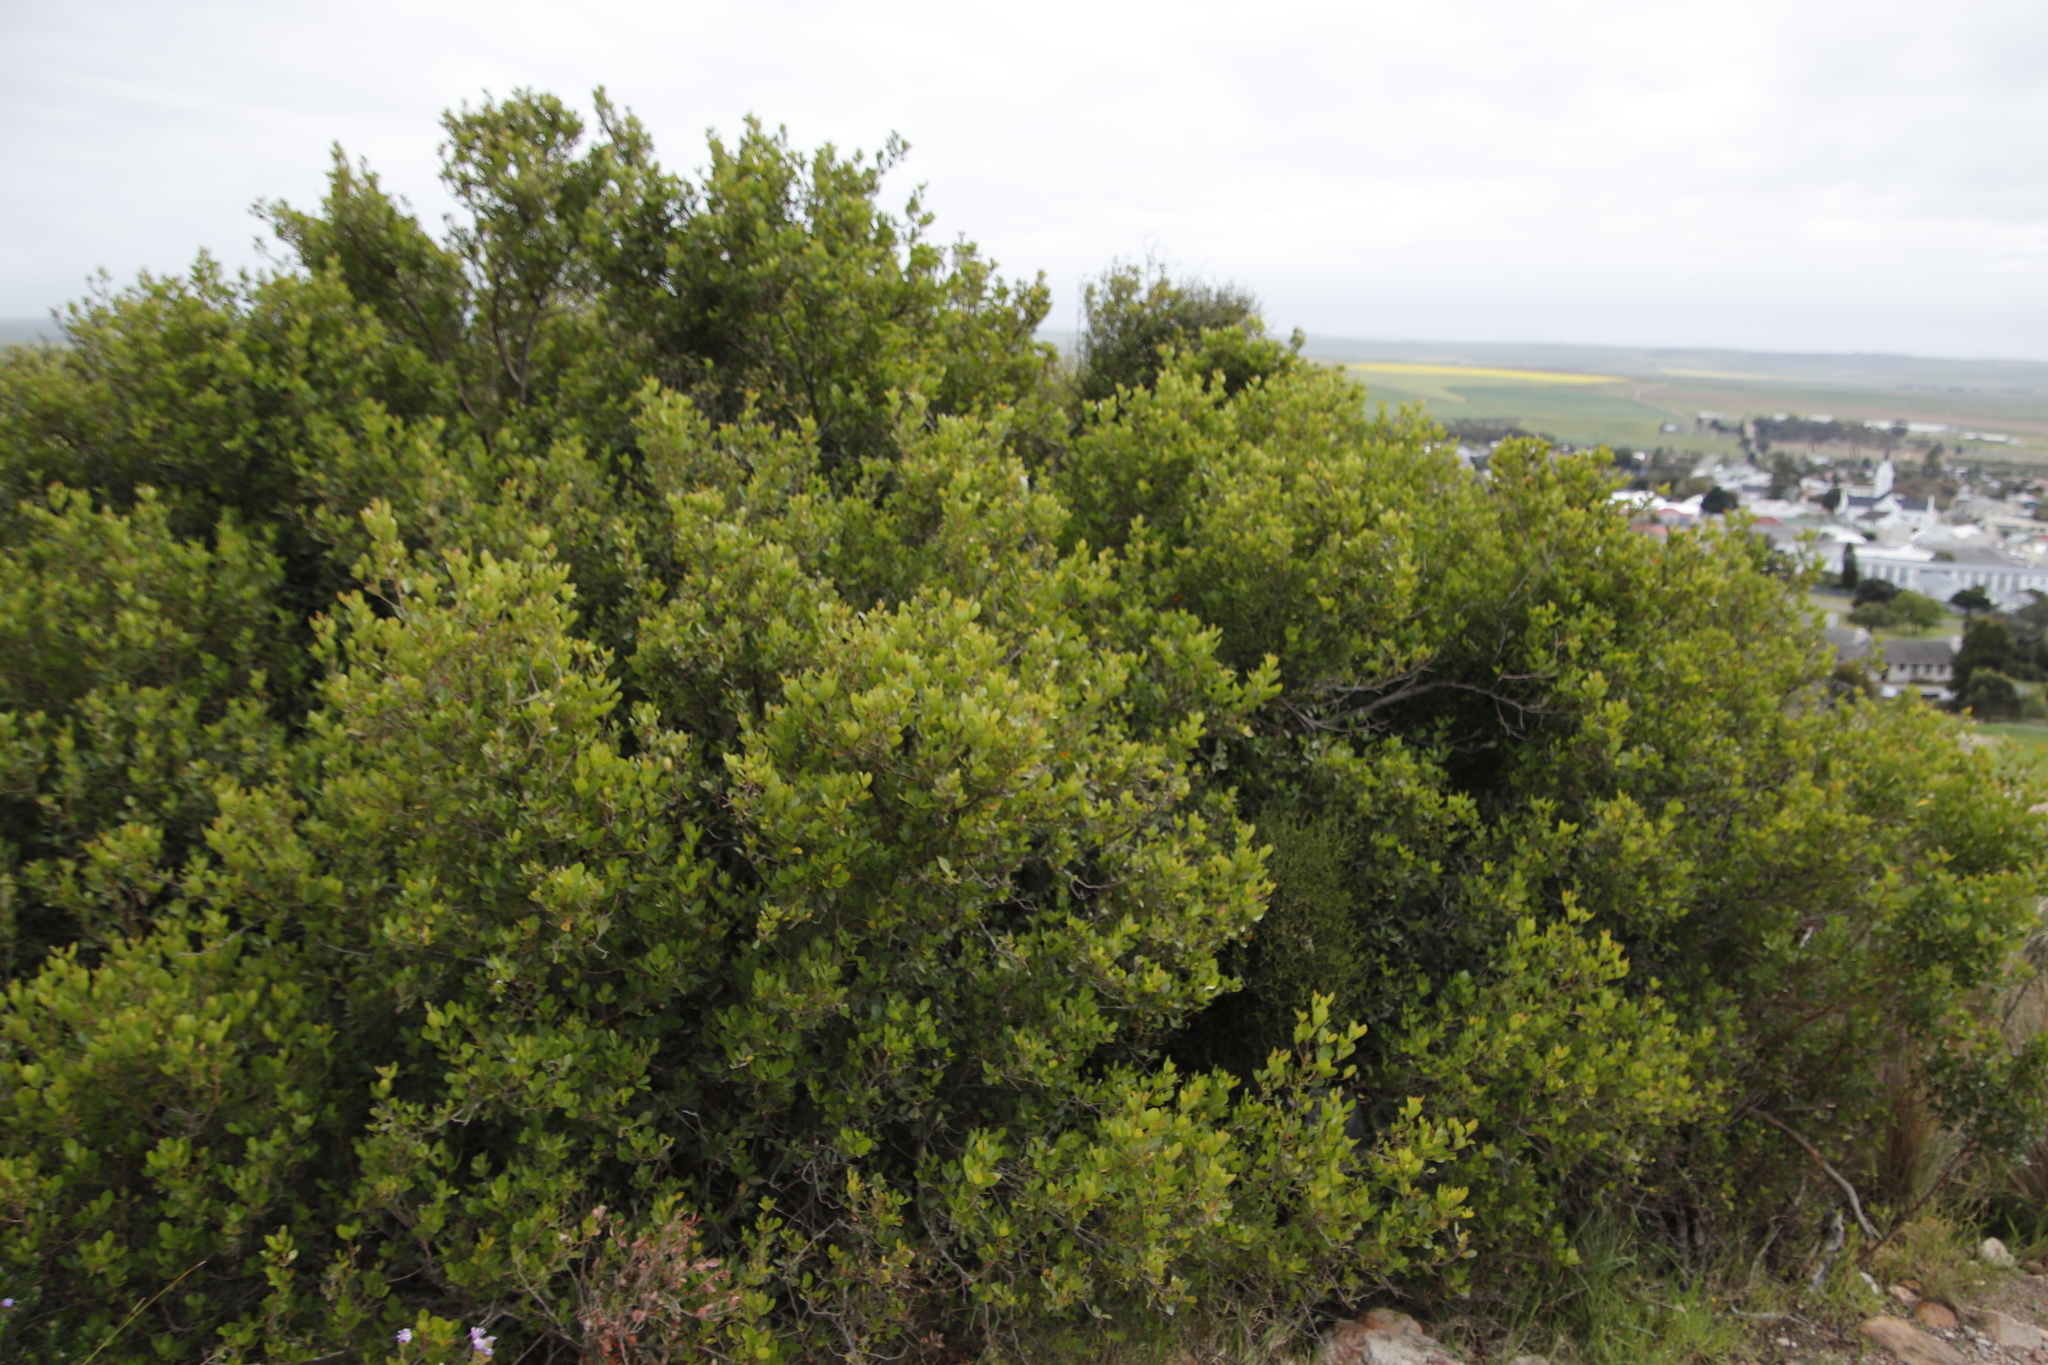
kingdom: Plantae
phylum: Tracheophyta
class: Magnoliopsida
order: Sapindales
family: Anacardiaceae
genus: Searsia
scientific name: Searsia lucida
